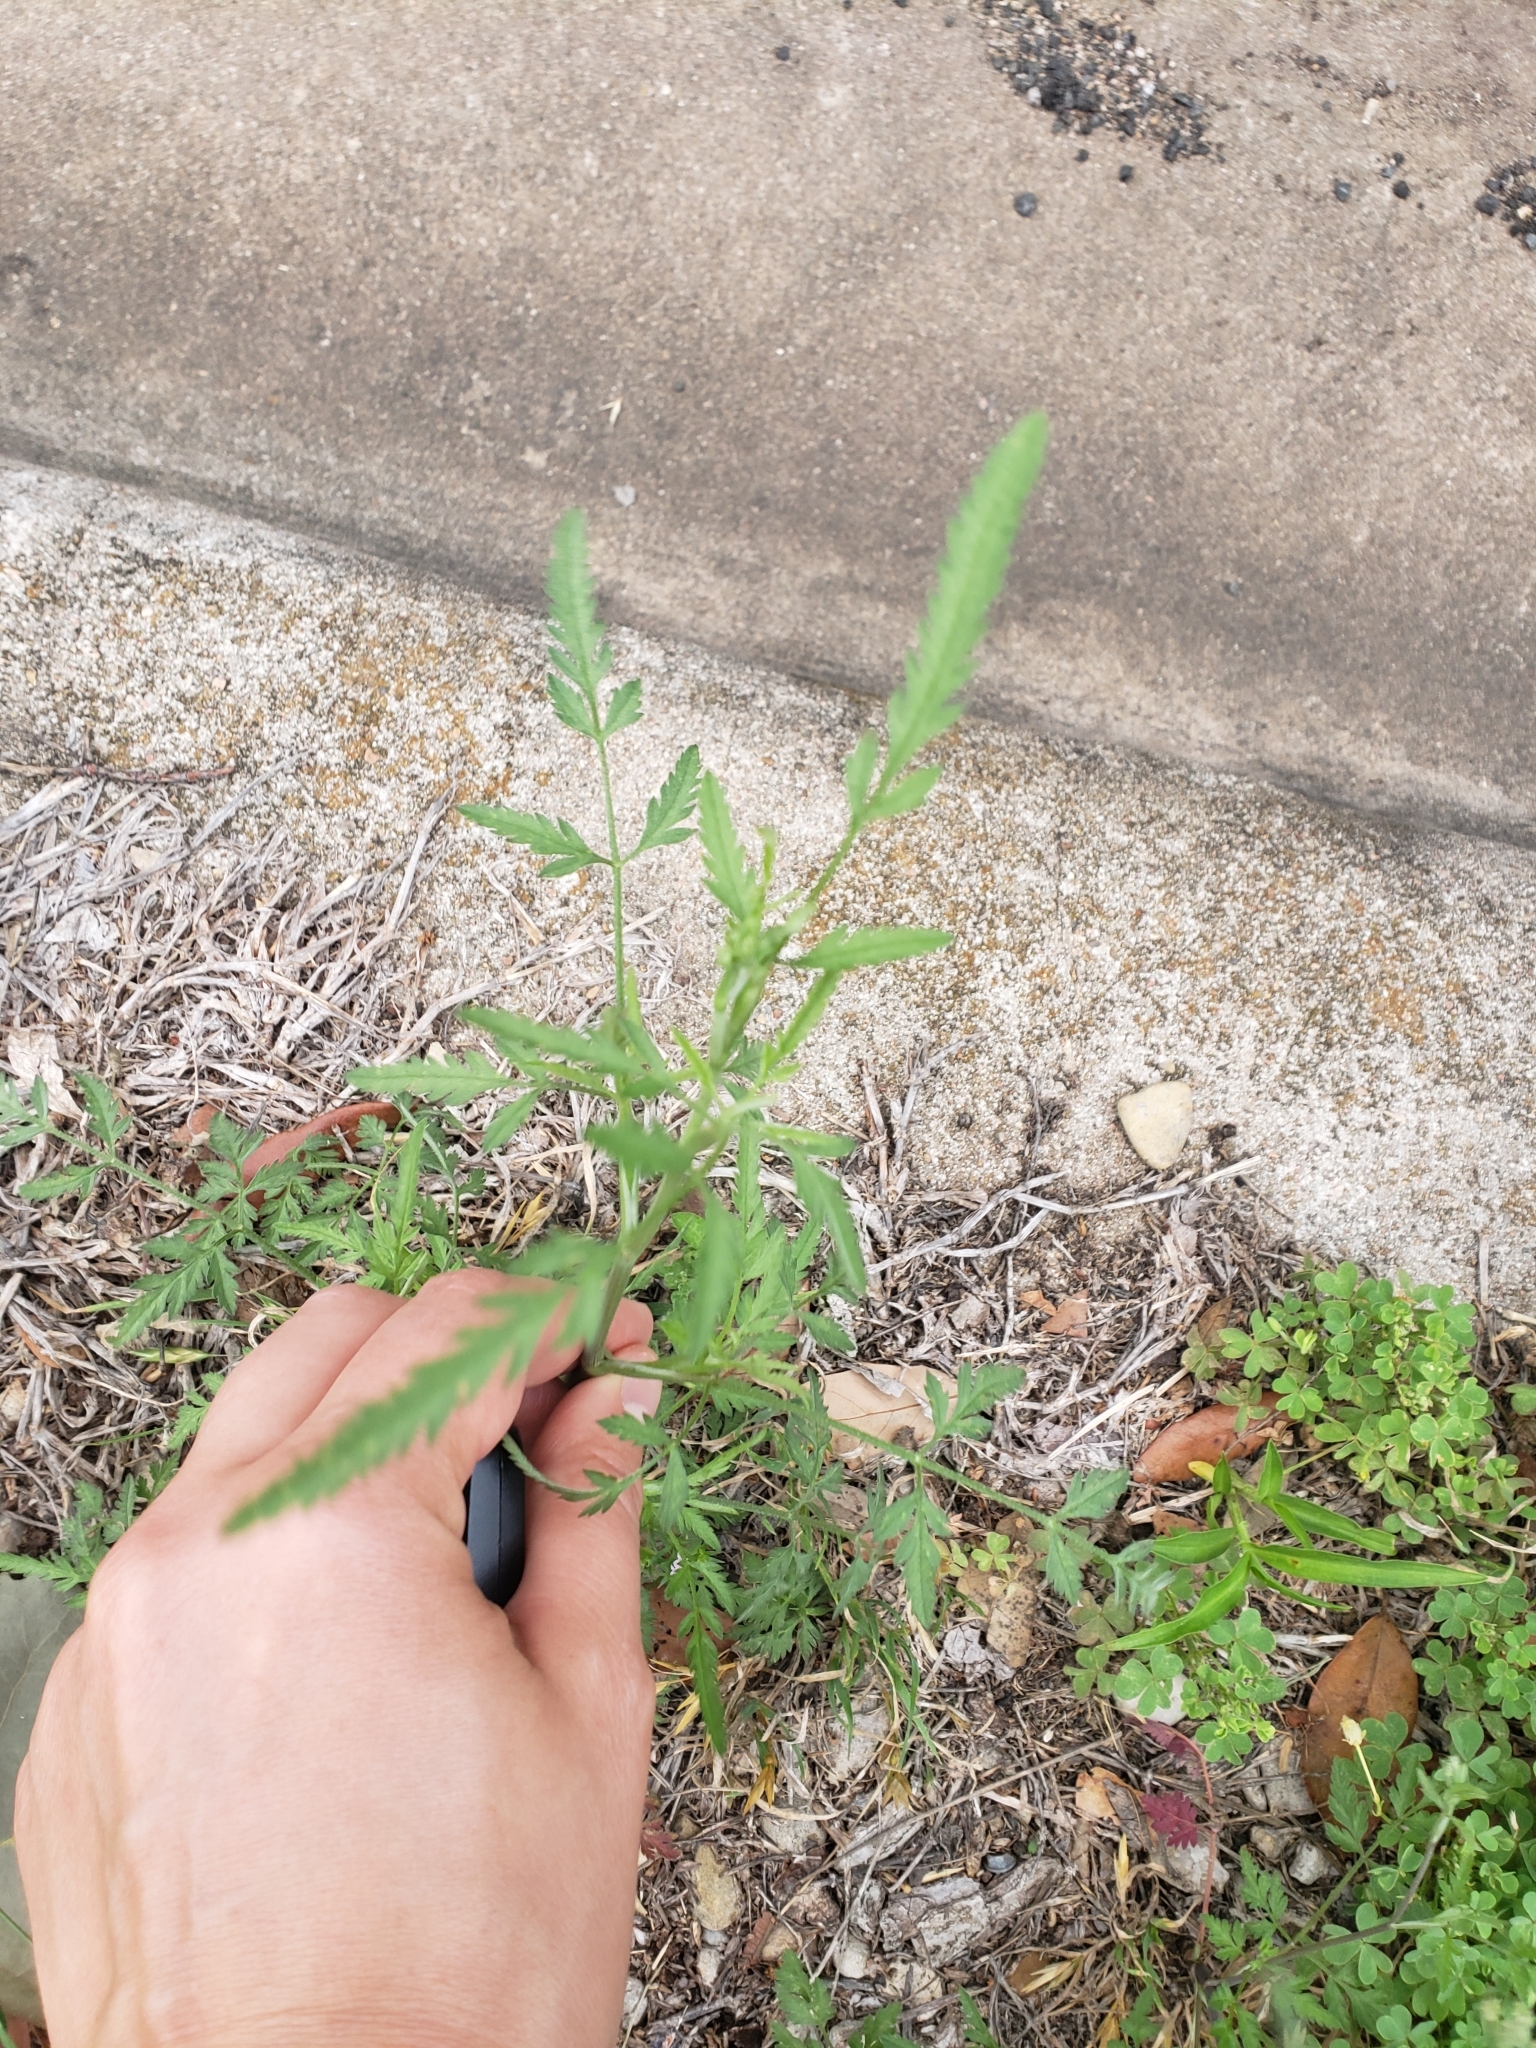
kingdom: Plantae
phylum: Tracheophyta
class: Magnoliopsida
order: Apiales
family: Apiaceae
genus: Torilis
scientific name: Torilis arvensis
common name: Spreading hedge-parsley
